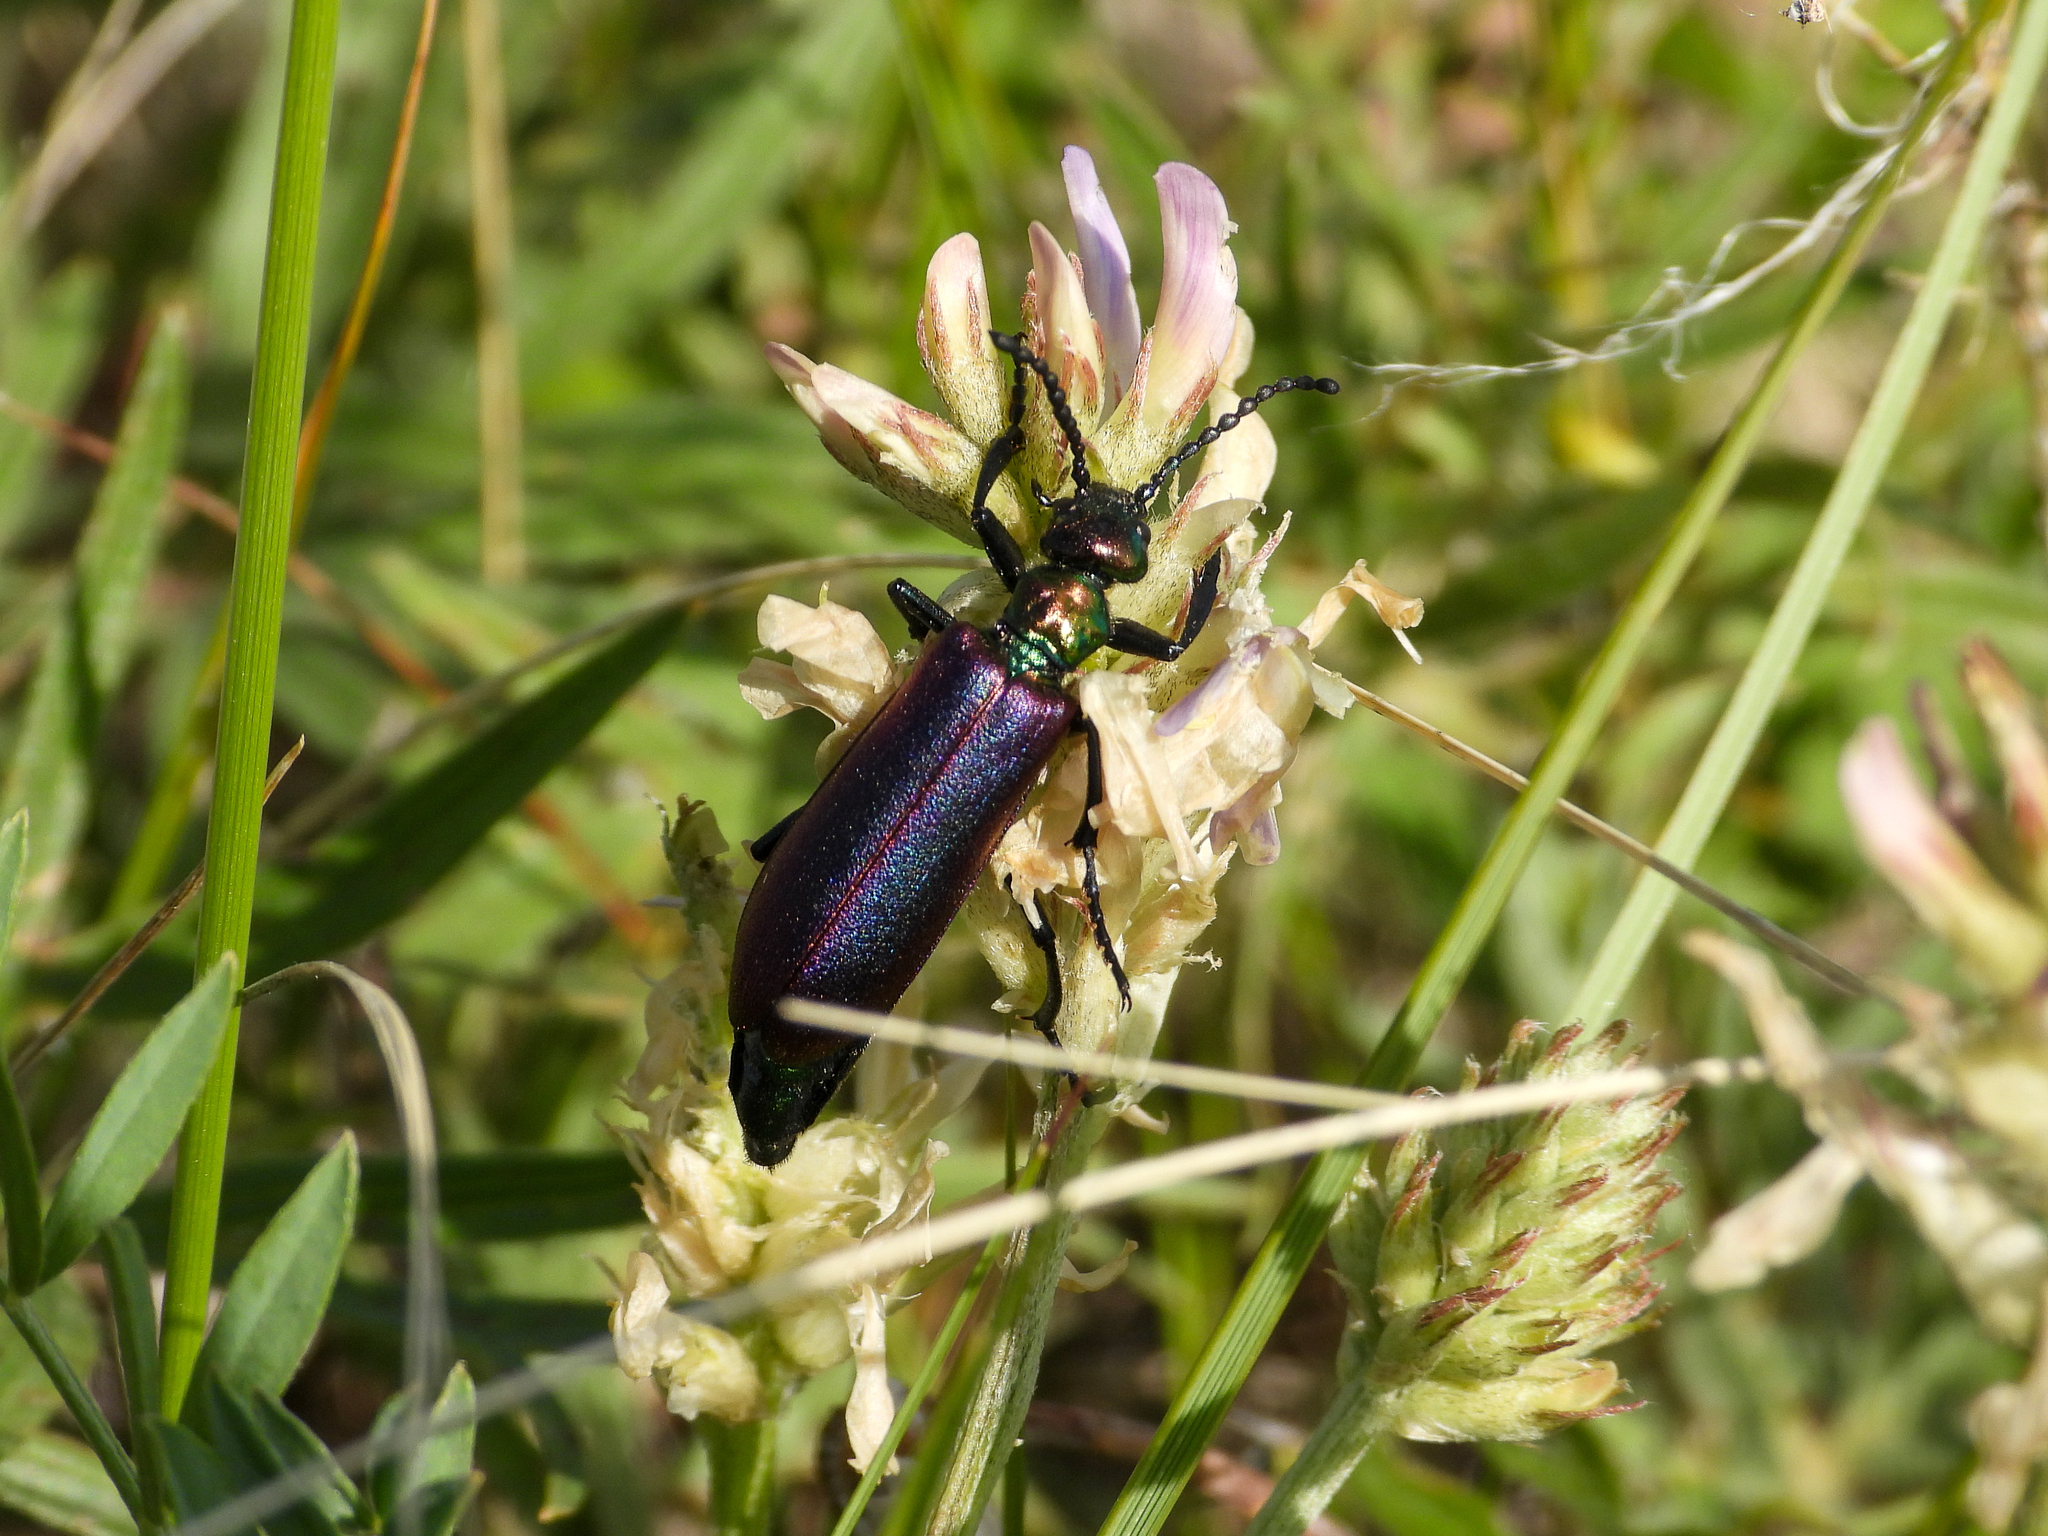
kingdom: Animalia
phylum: Arthropoda
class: Insecta
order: Coleoptera
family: Meloidae
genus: Lytta
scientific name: Lytta nuttallii
